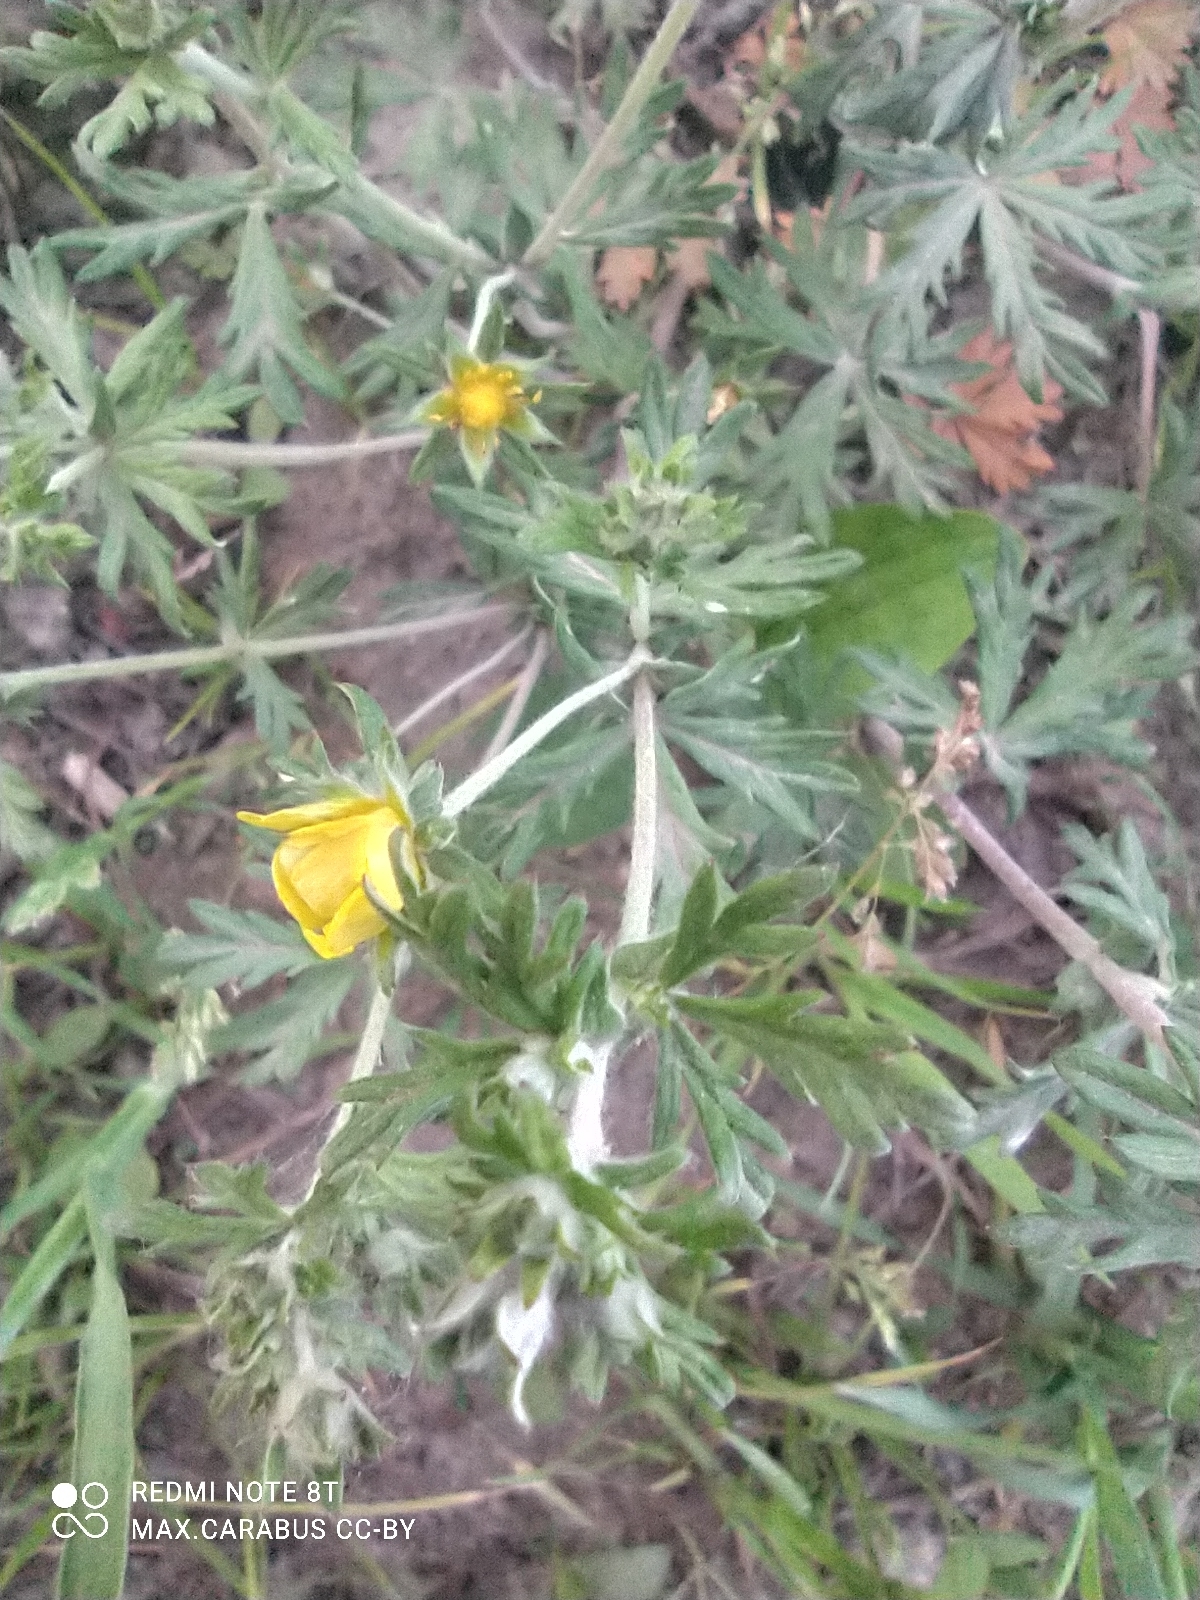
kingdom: Plantae
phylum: Tracheophyta
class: Magnoliopsida
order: Rosales
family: Rosaceae
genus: Potentilla
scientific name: Potentilla argentea
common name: Hoary cinquefoil
